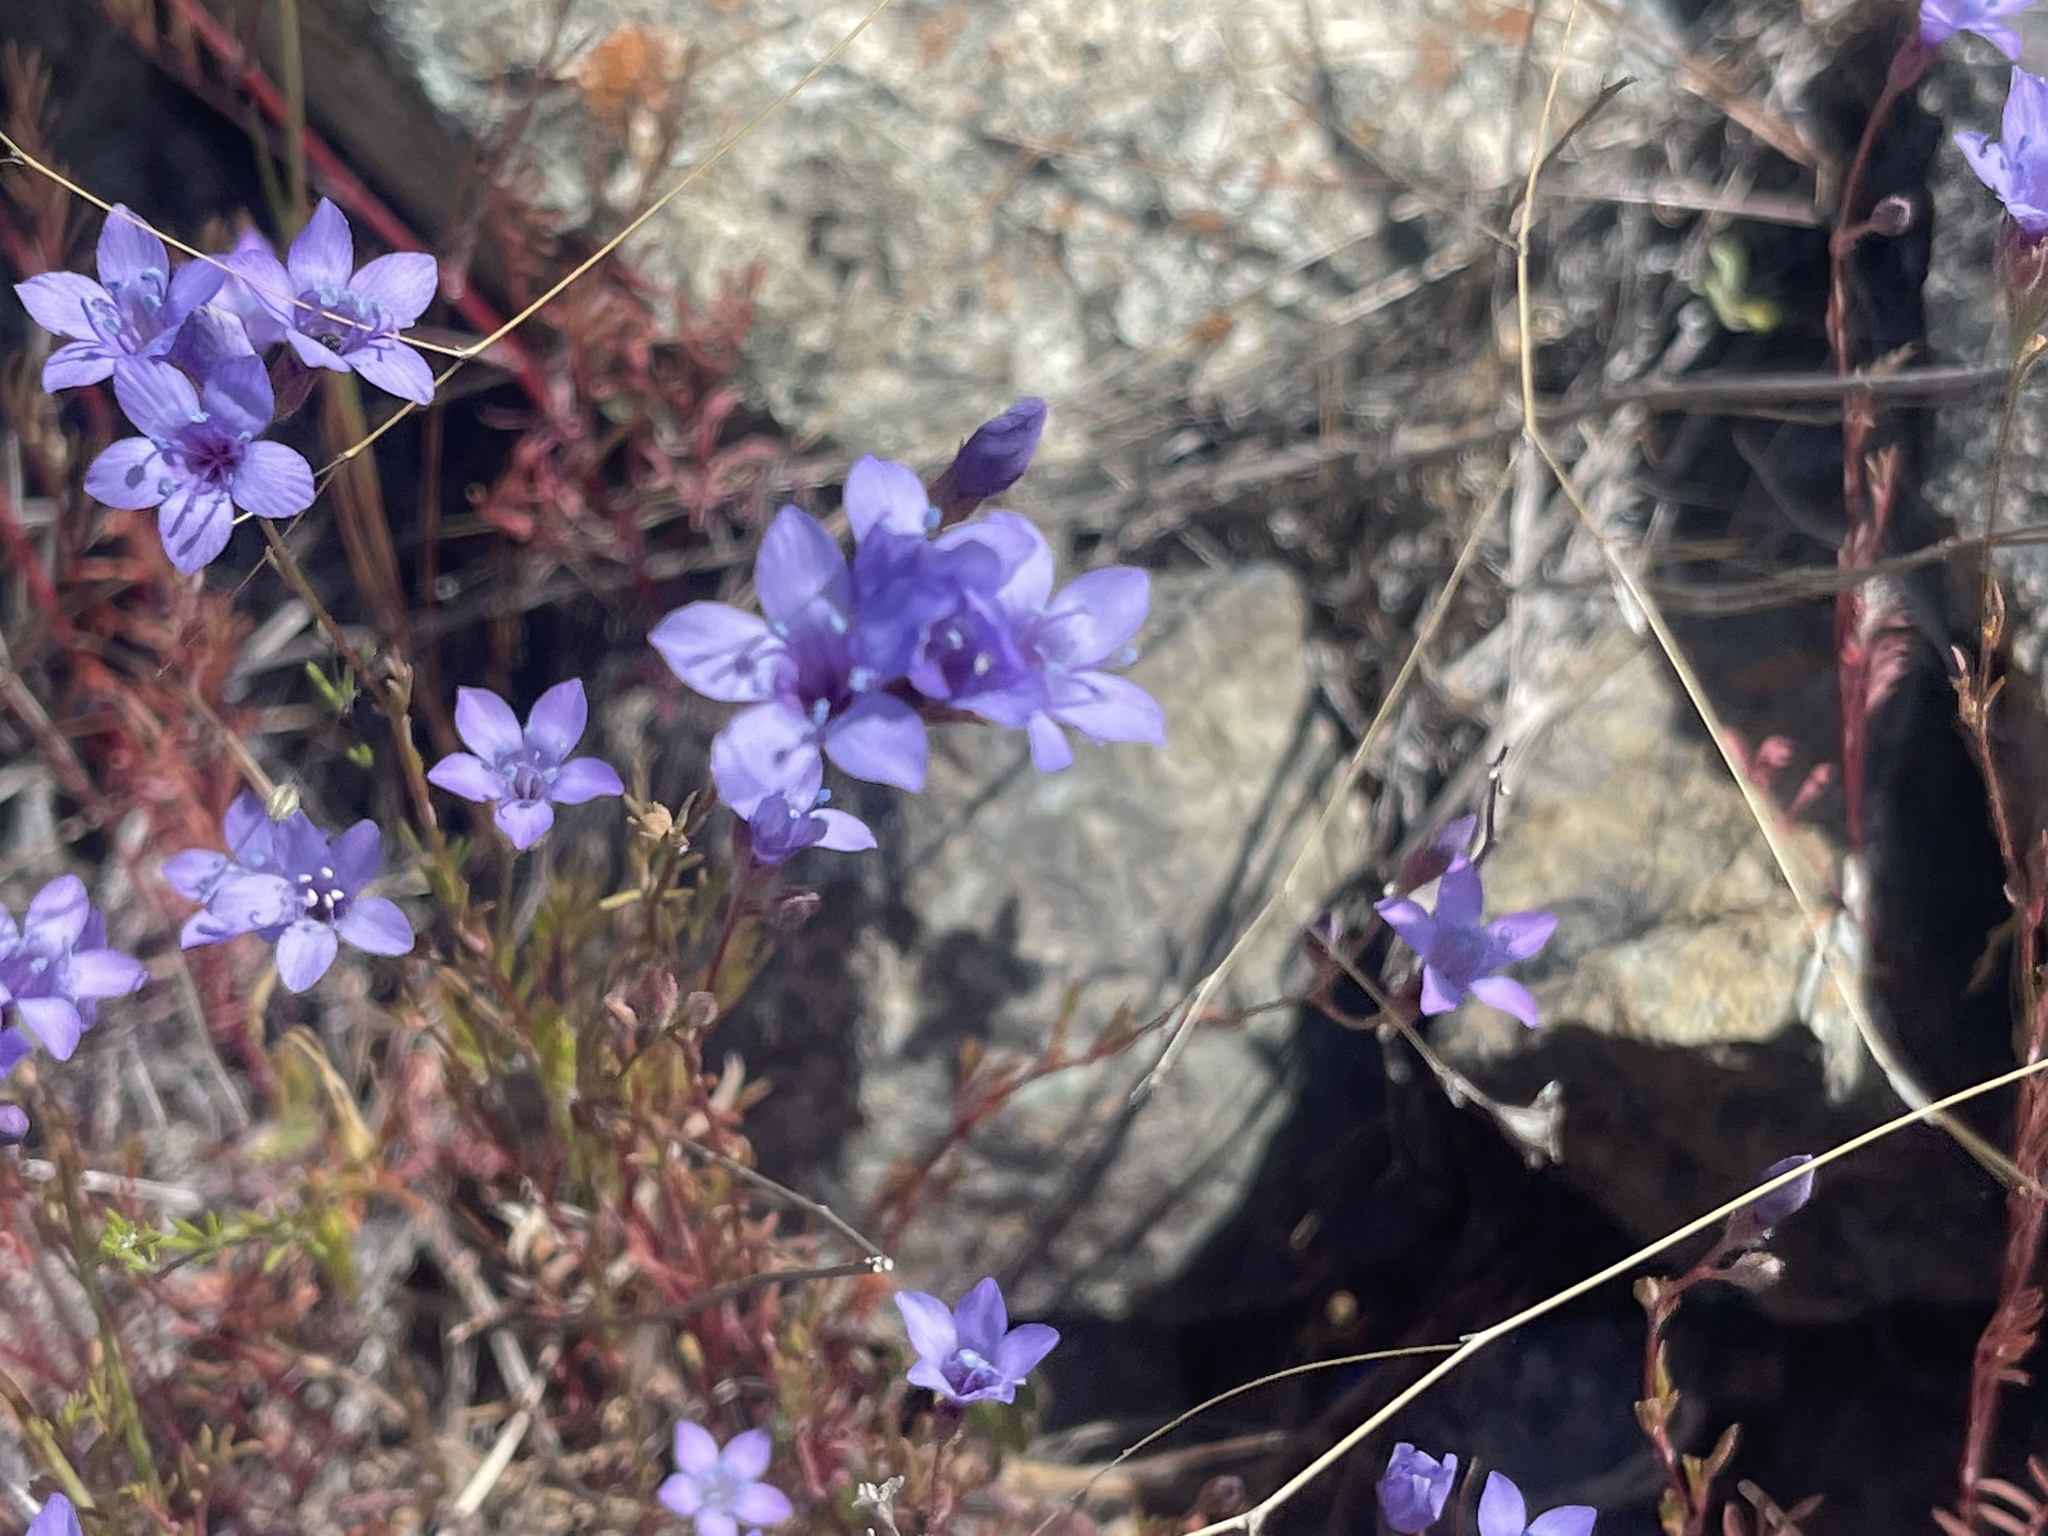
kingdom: Plantae
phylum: Tracheophyta
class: Magnoliopsida
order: Ericales
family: Polemoniaceae
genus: Gilia
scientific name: Gilia achilleifolia
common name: California gily-flower
